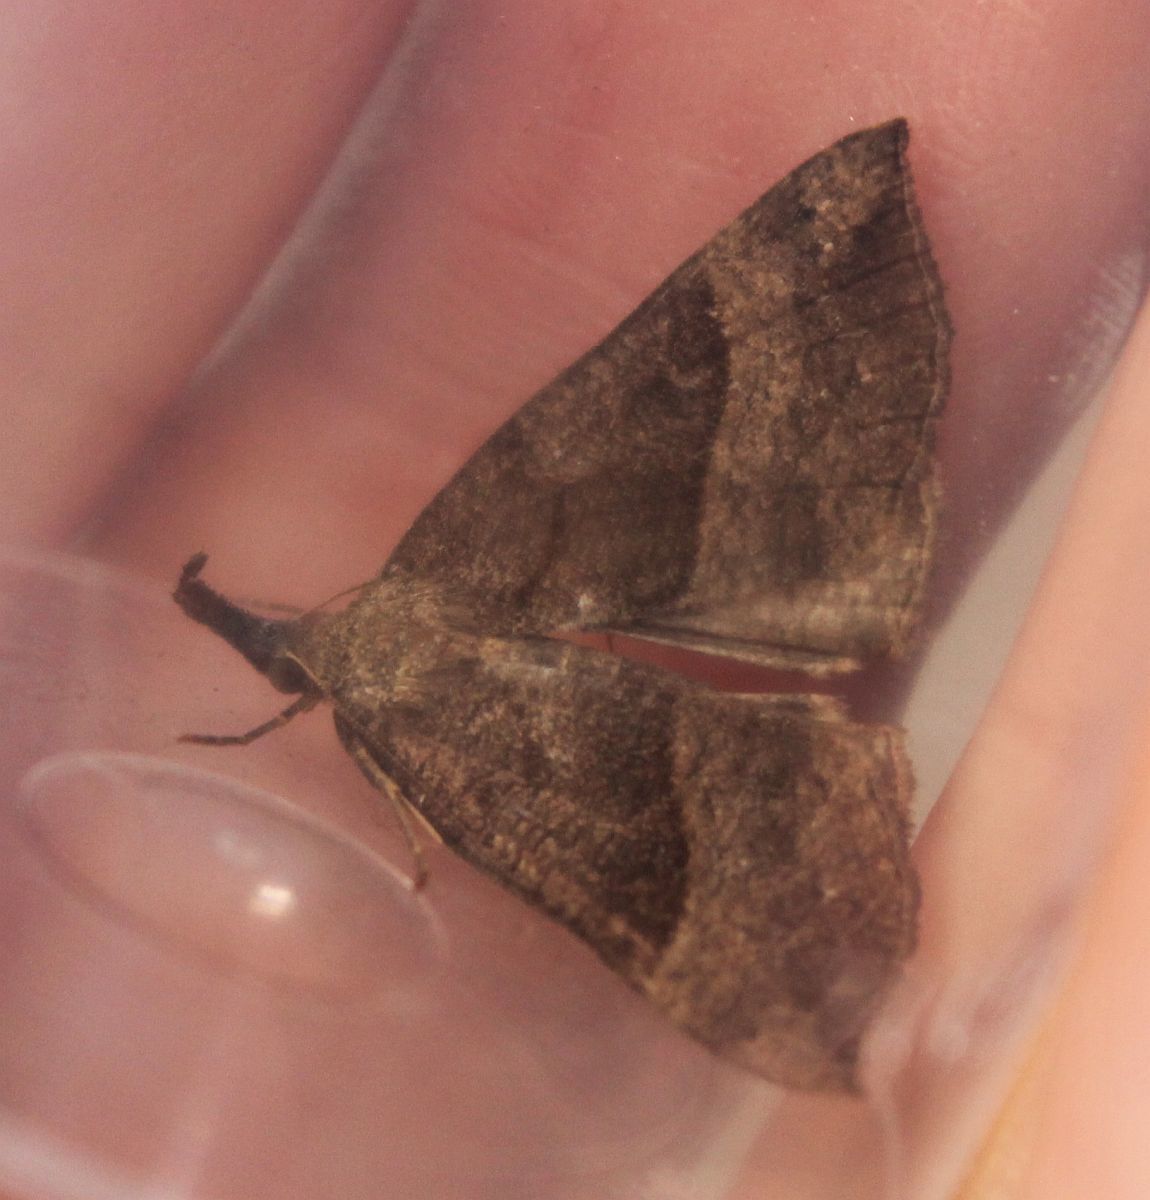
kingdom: Animalia
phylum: Arthropoda
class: Insecta
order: Lepidoptera
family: Erebidae
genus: Hypena
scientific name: Hypena proboscidalis
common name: Snout
